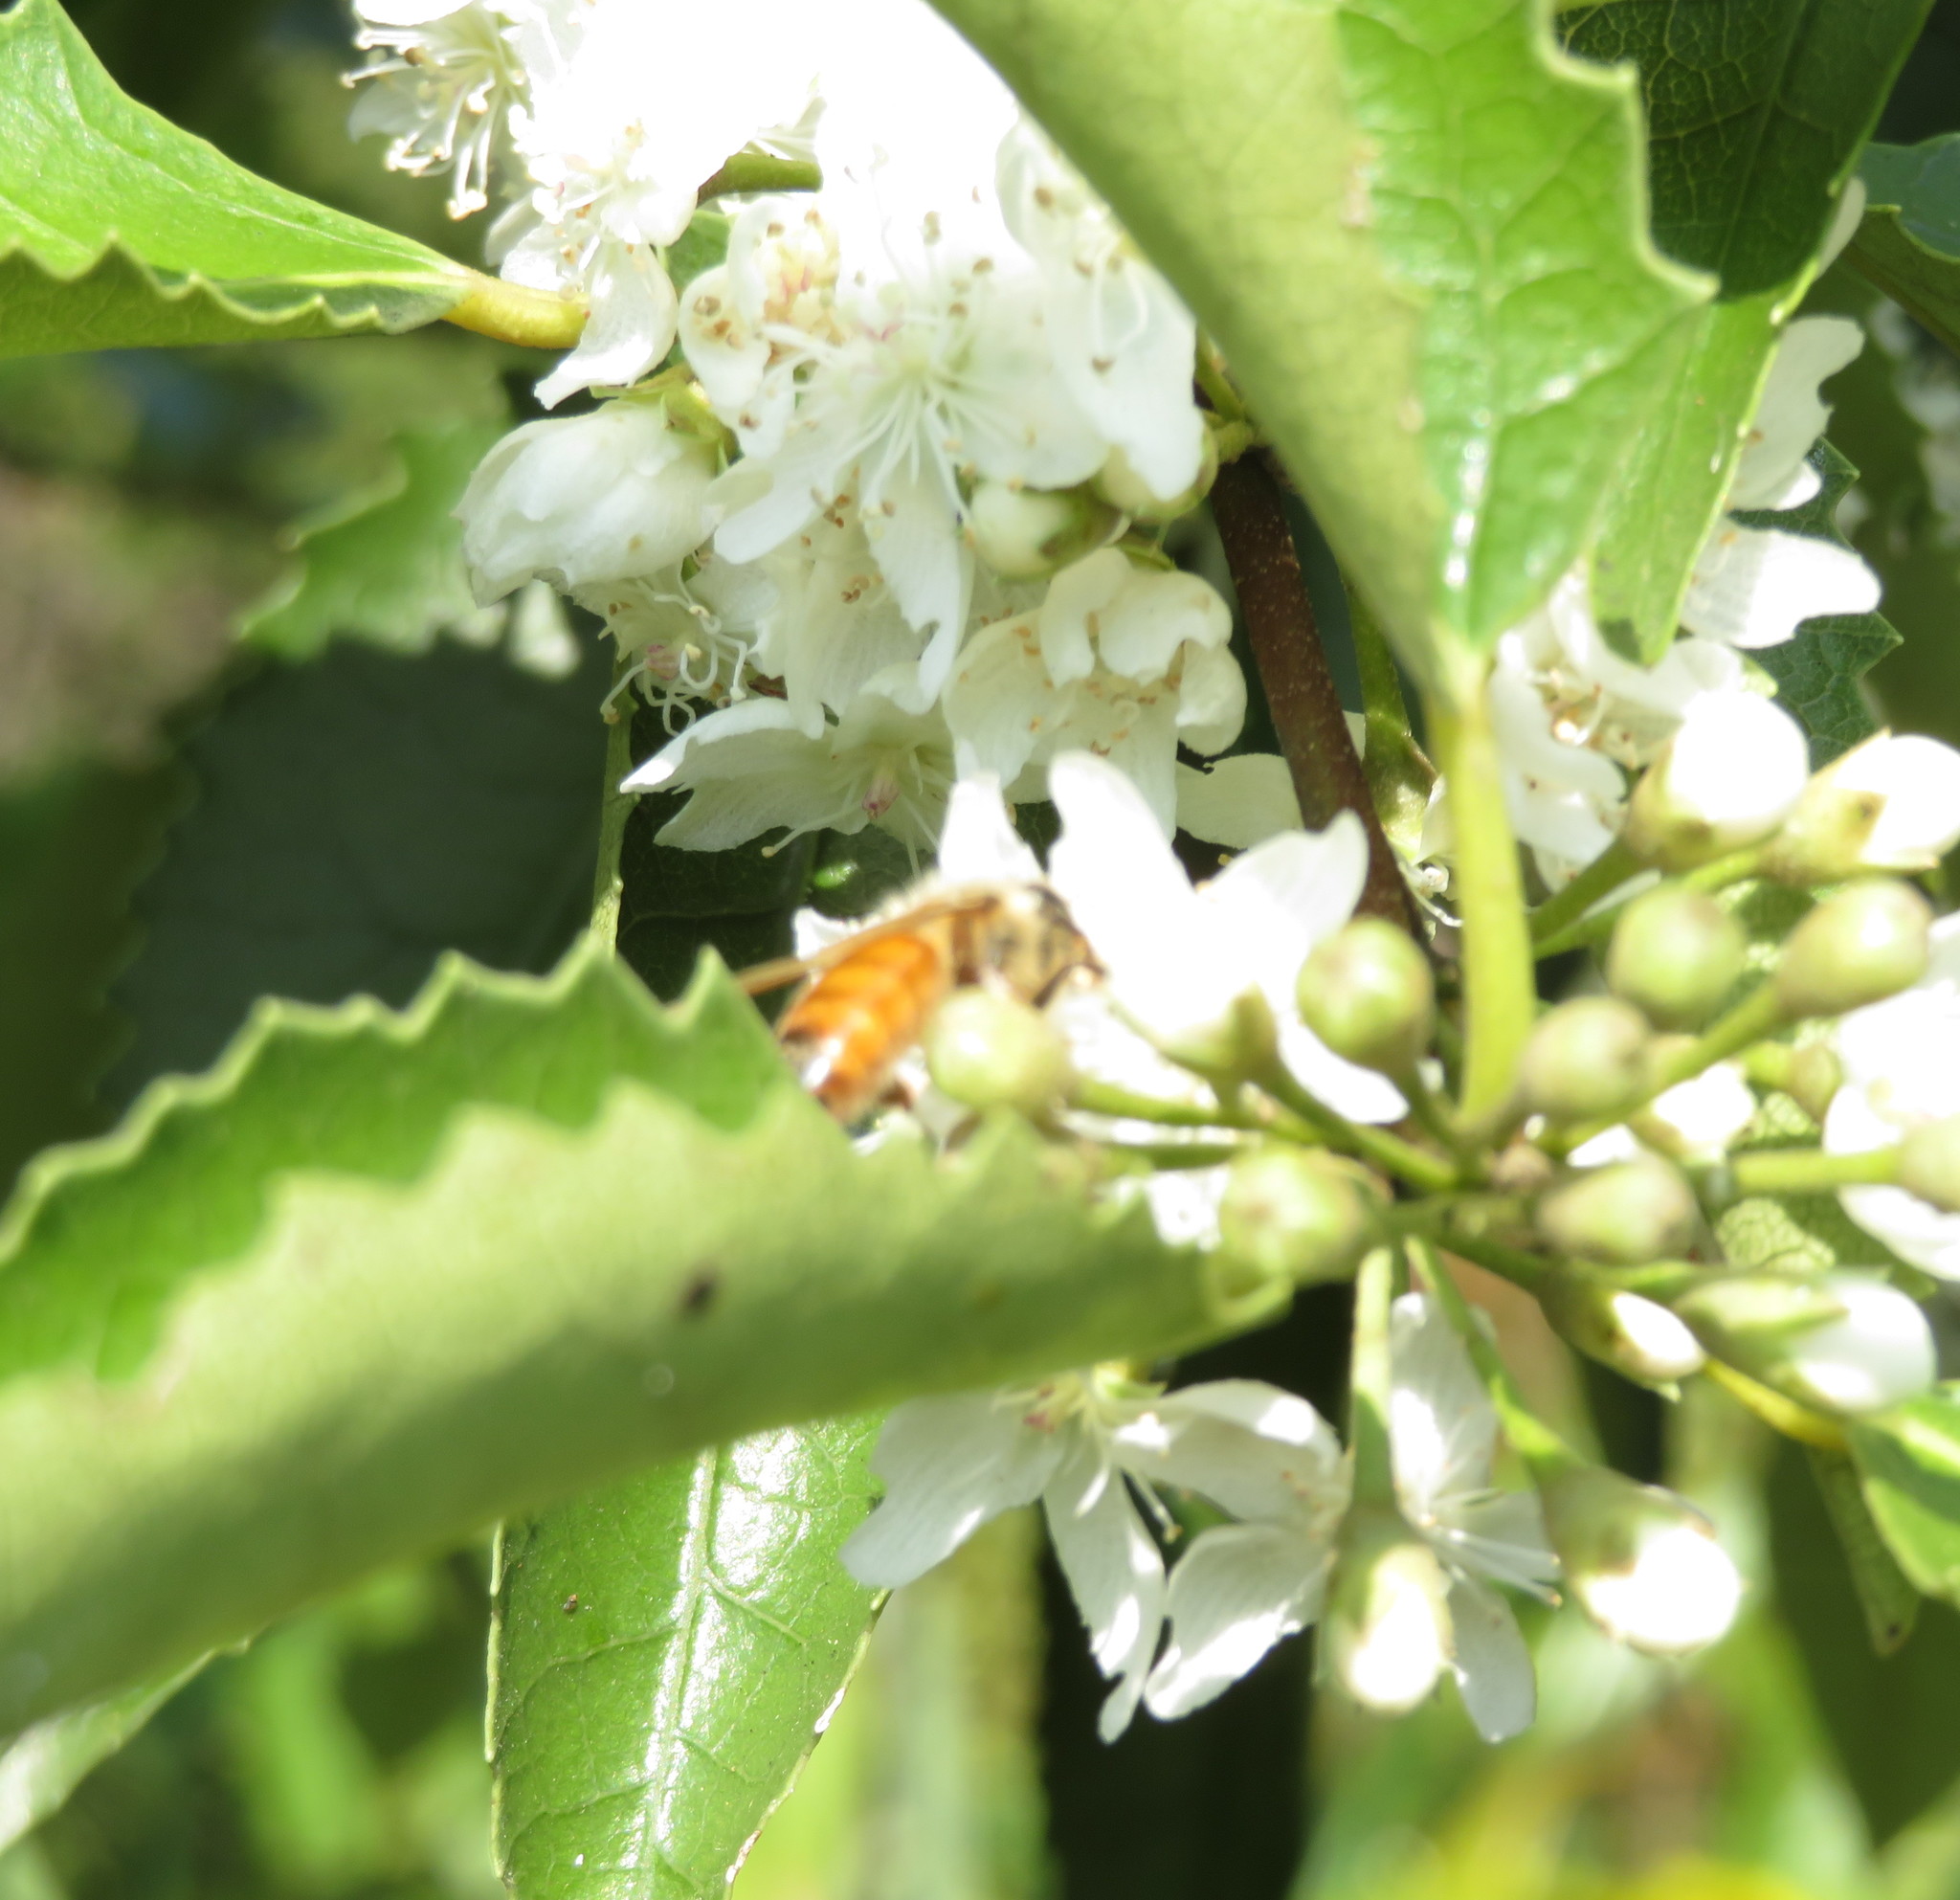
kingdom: Animalia
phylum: Arthropoda
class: Insecta
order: Hymenoptera
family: Apidae
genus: Apis
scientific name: Apis mellifera
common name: Honey bee
